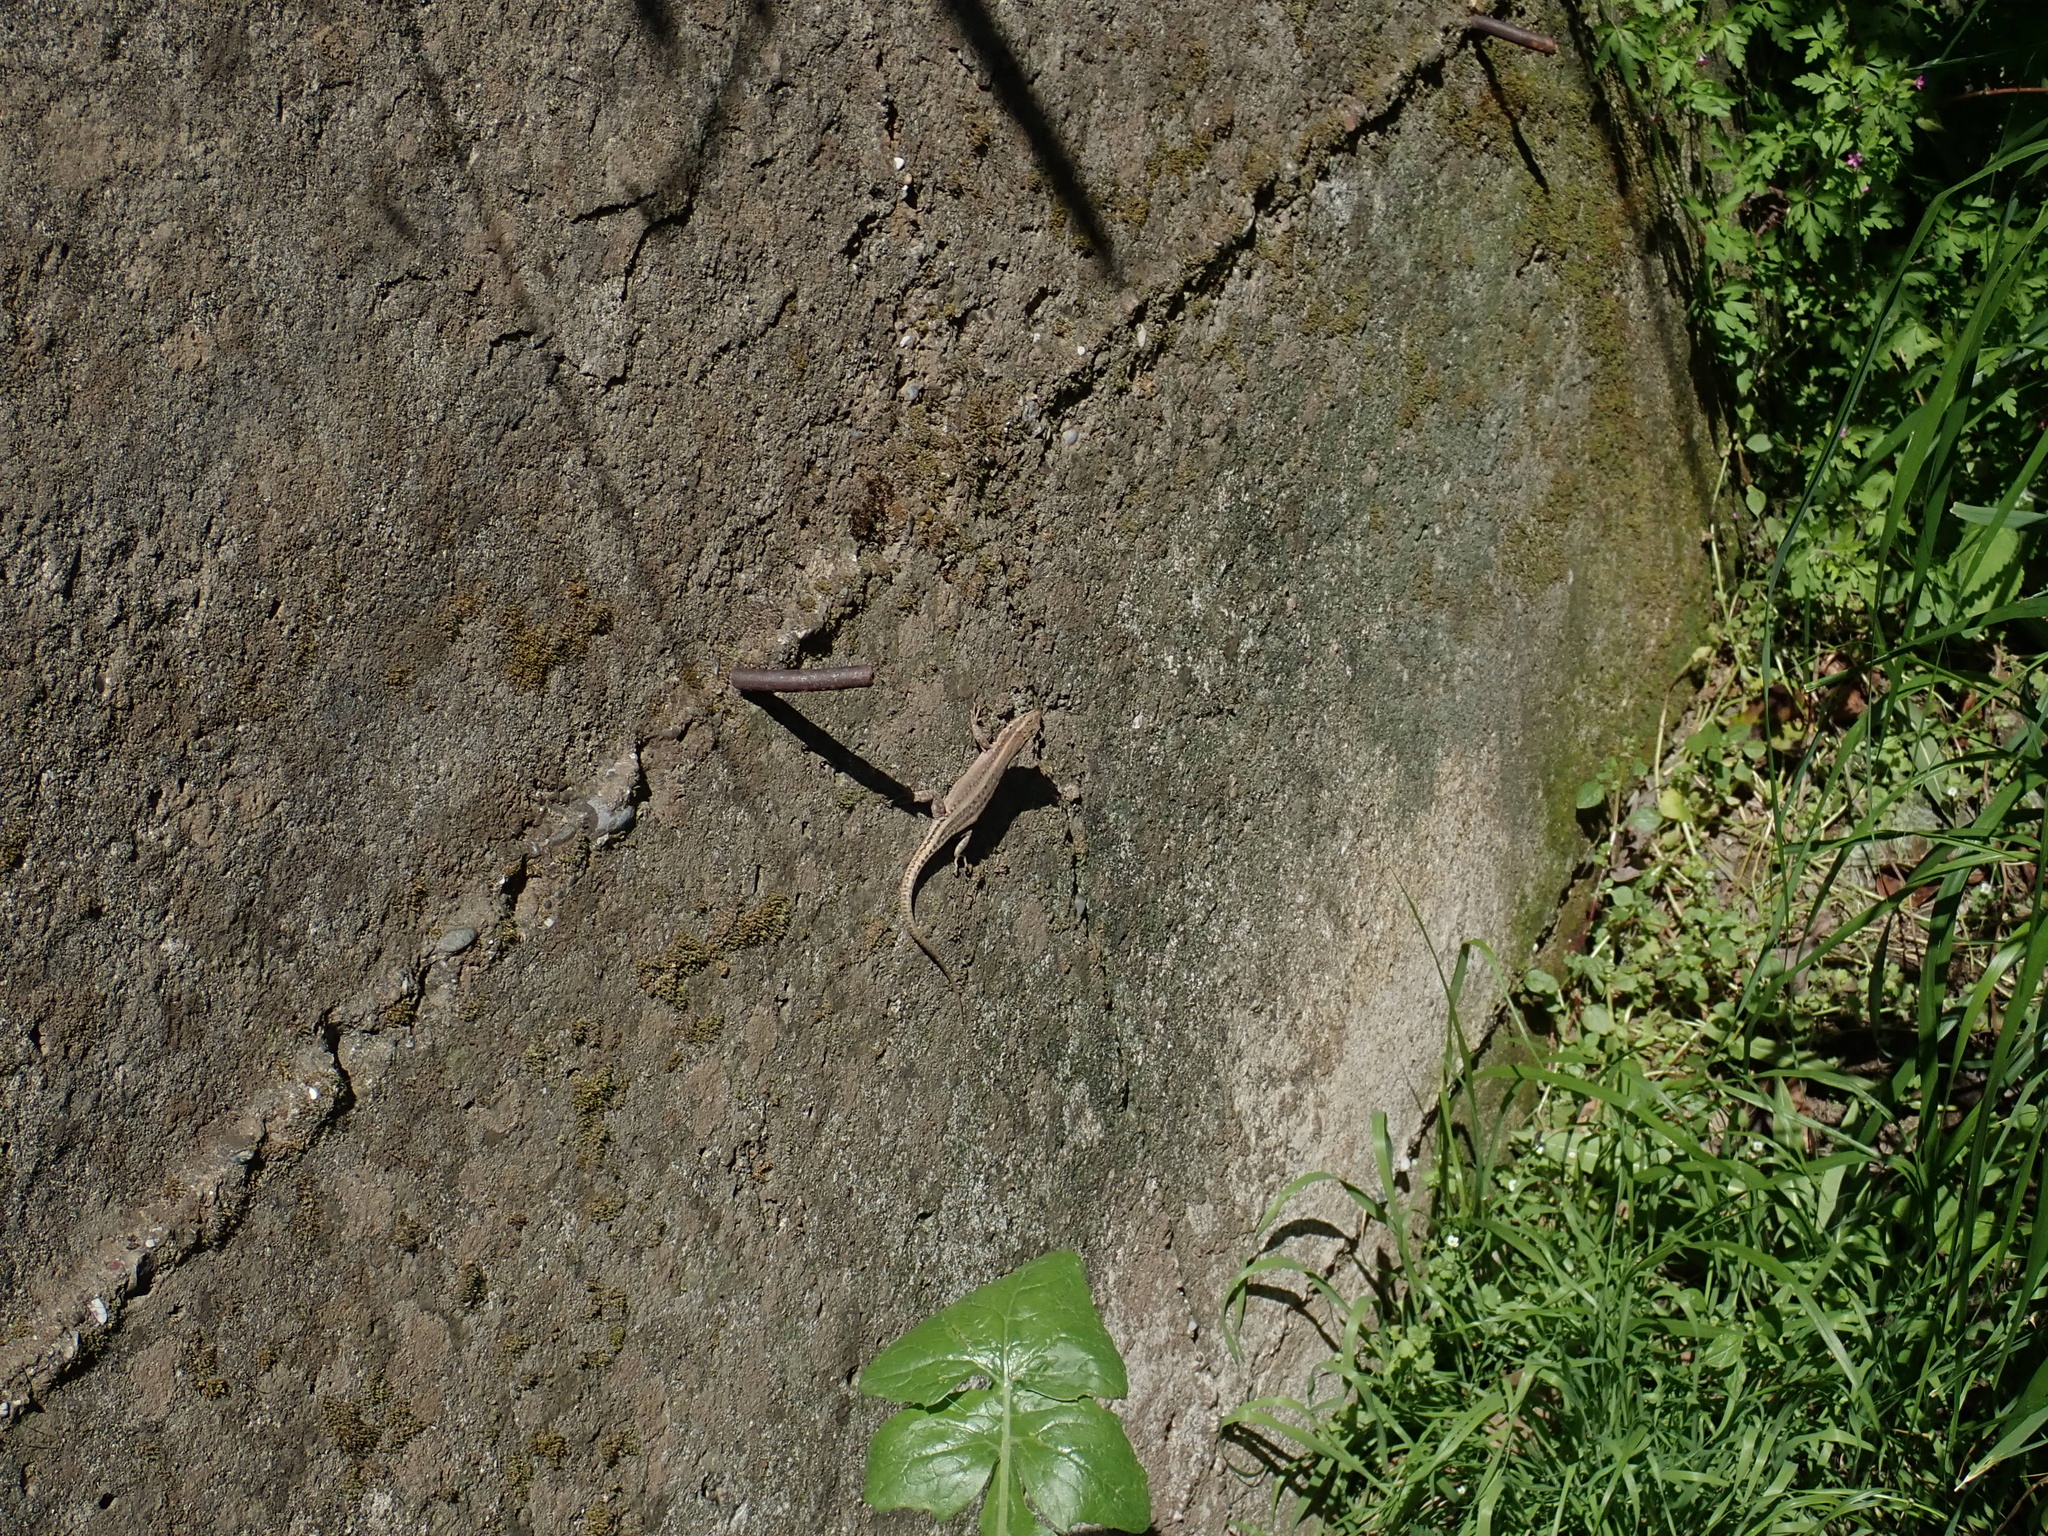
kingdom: Animalia
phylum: Chordata
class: Squamata
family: Lacertidae
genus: Anatololacerta
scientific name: Anatololacerta pelasgiana
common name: Pelasgian rock lizard
